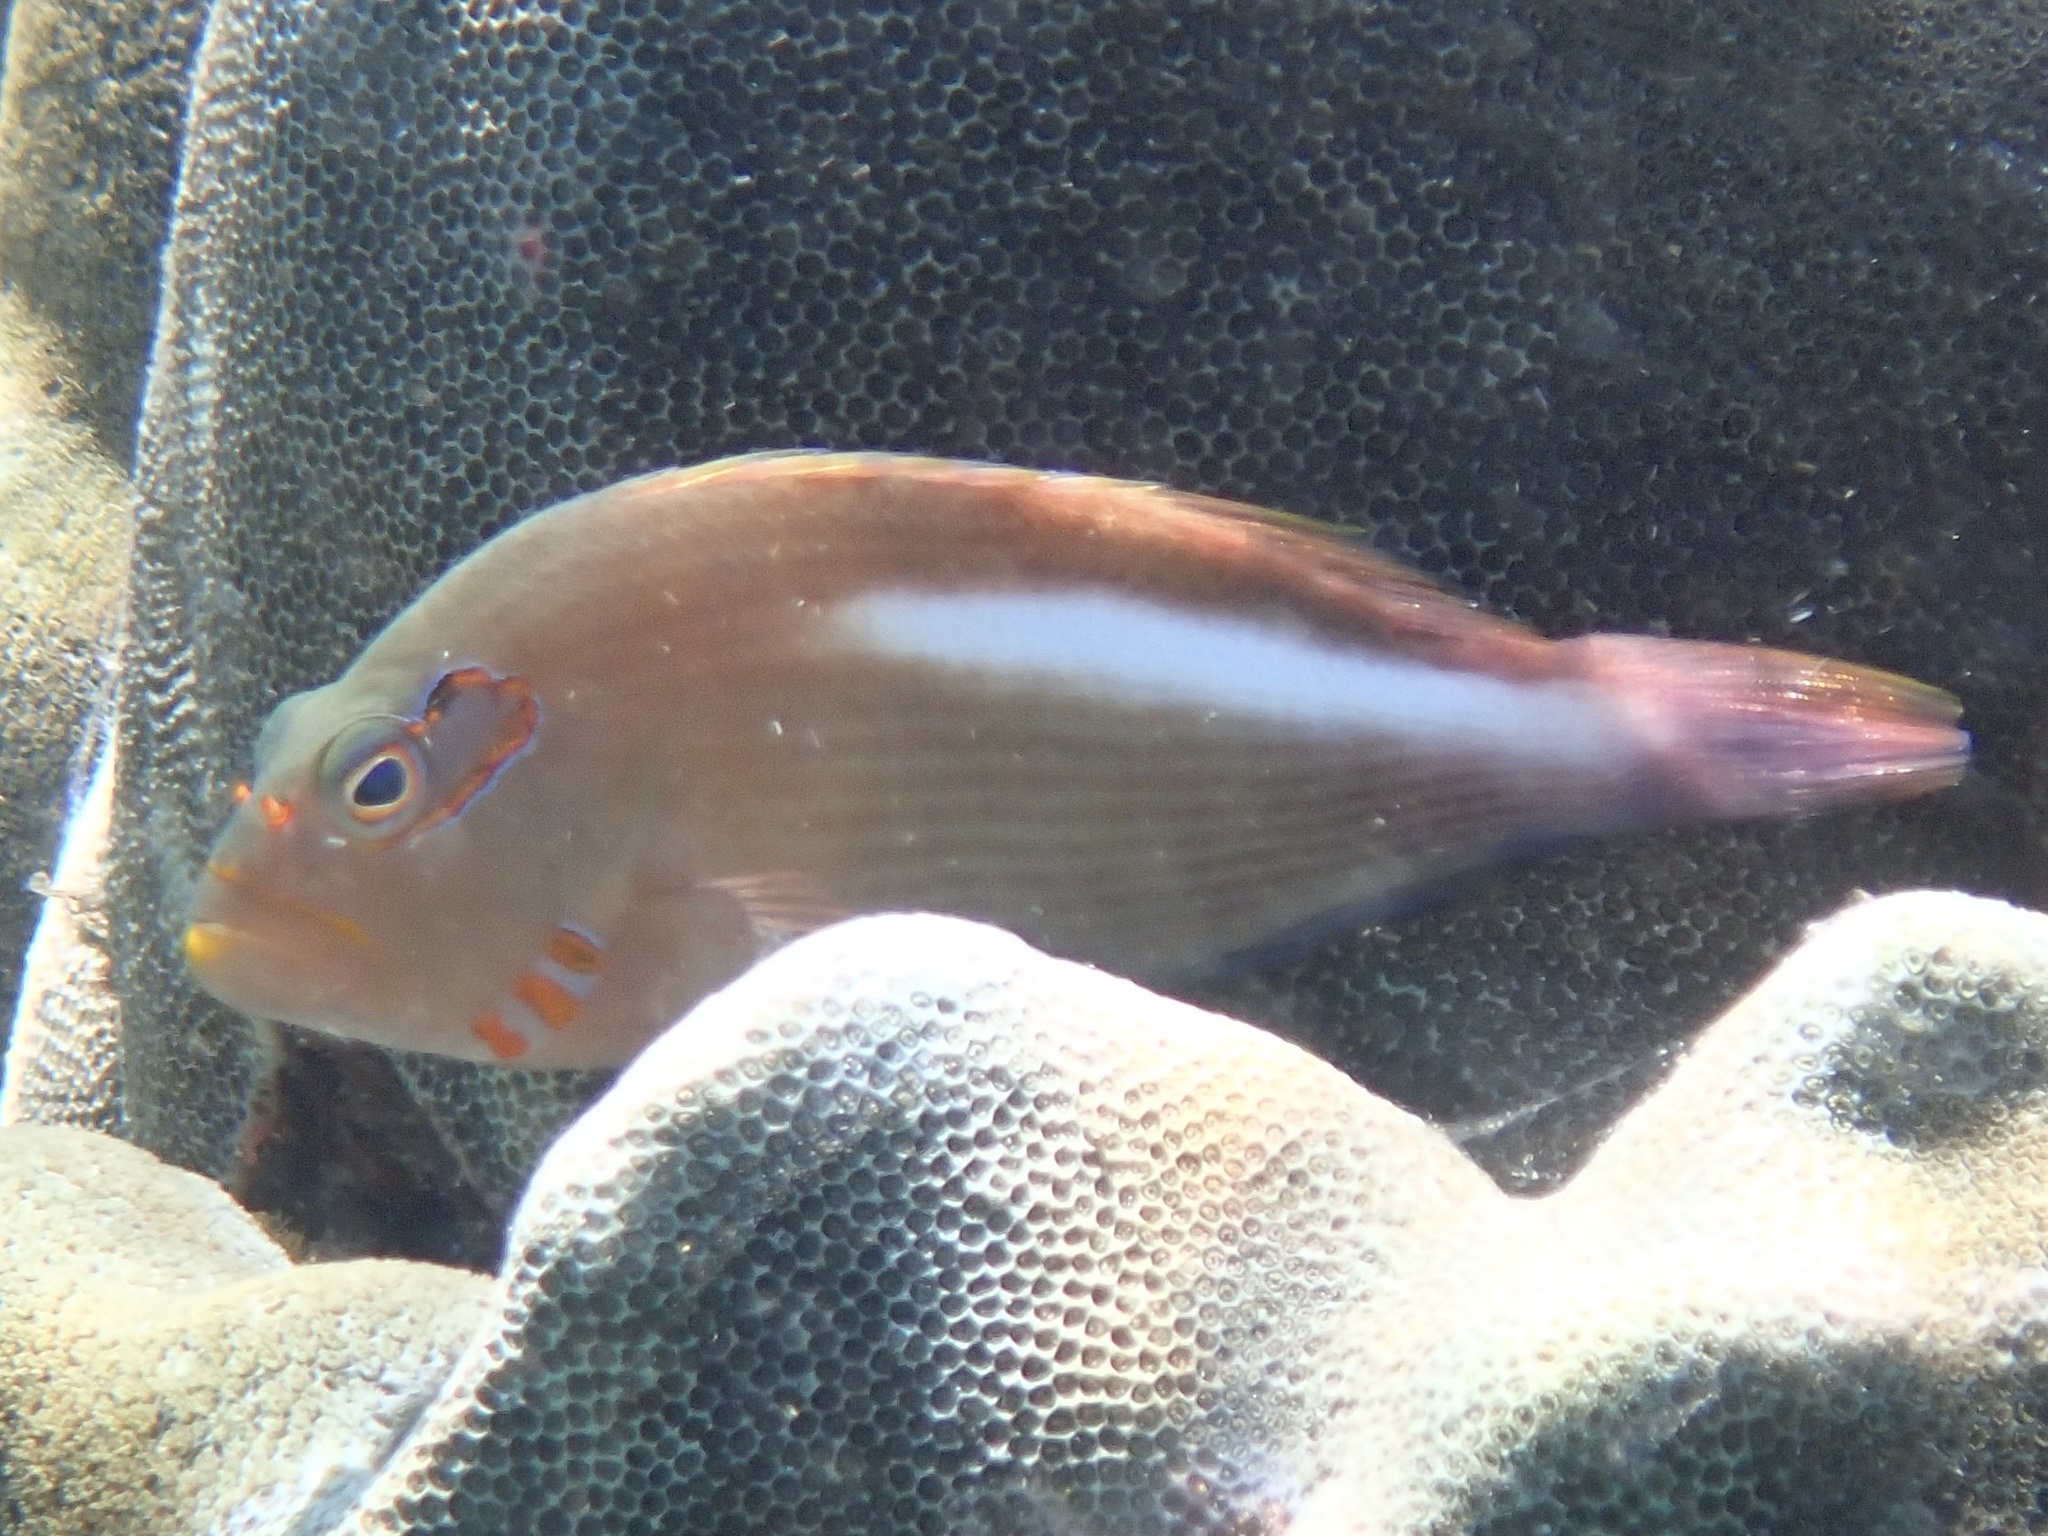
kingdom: Animalia
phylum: Chordata
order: Perciformes
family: Cirrhitidae
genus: Paracirrhites
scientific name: Paracirrhites arcatus
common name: Arc-eye hawkfish
